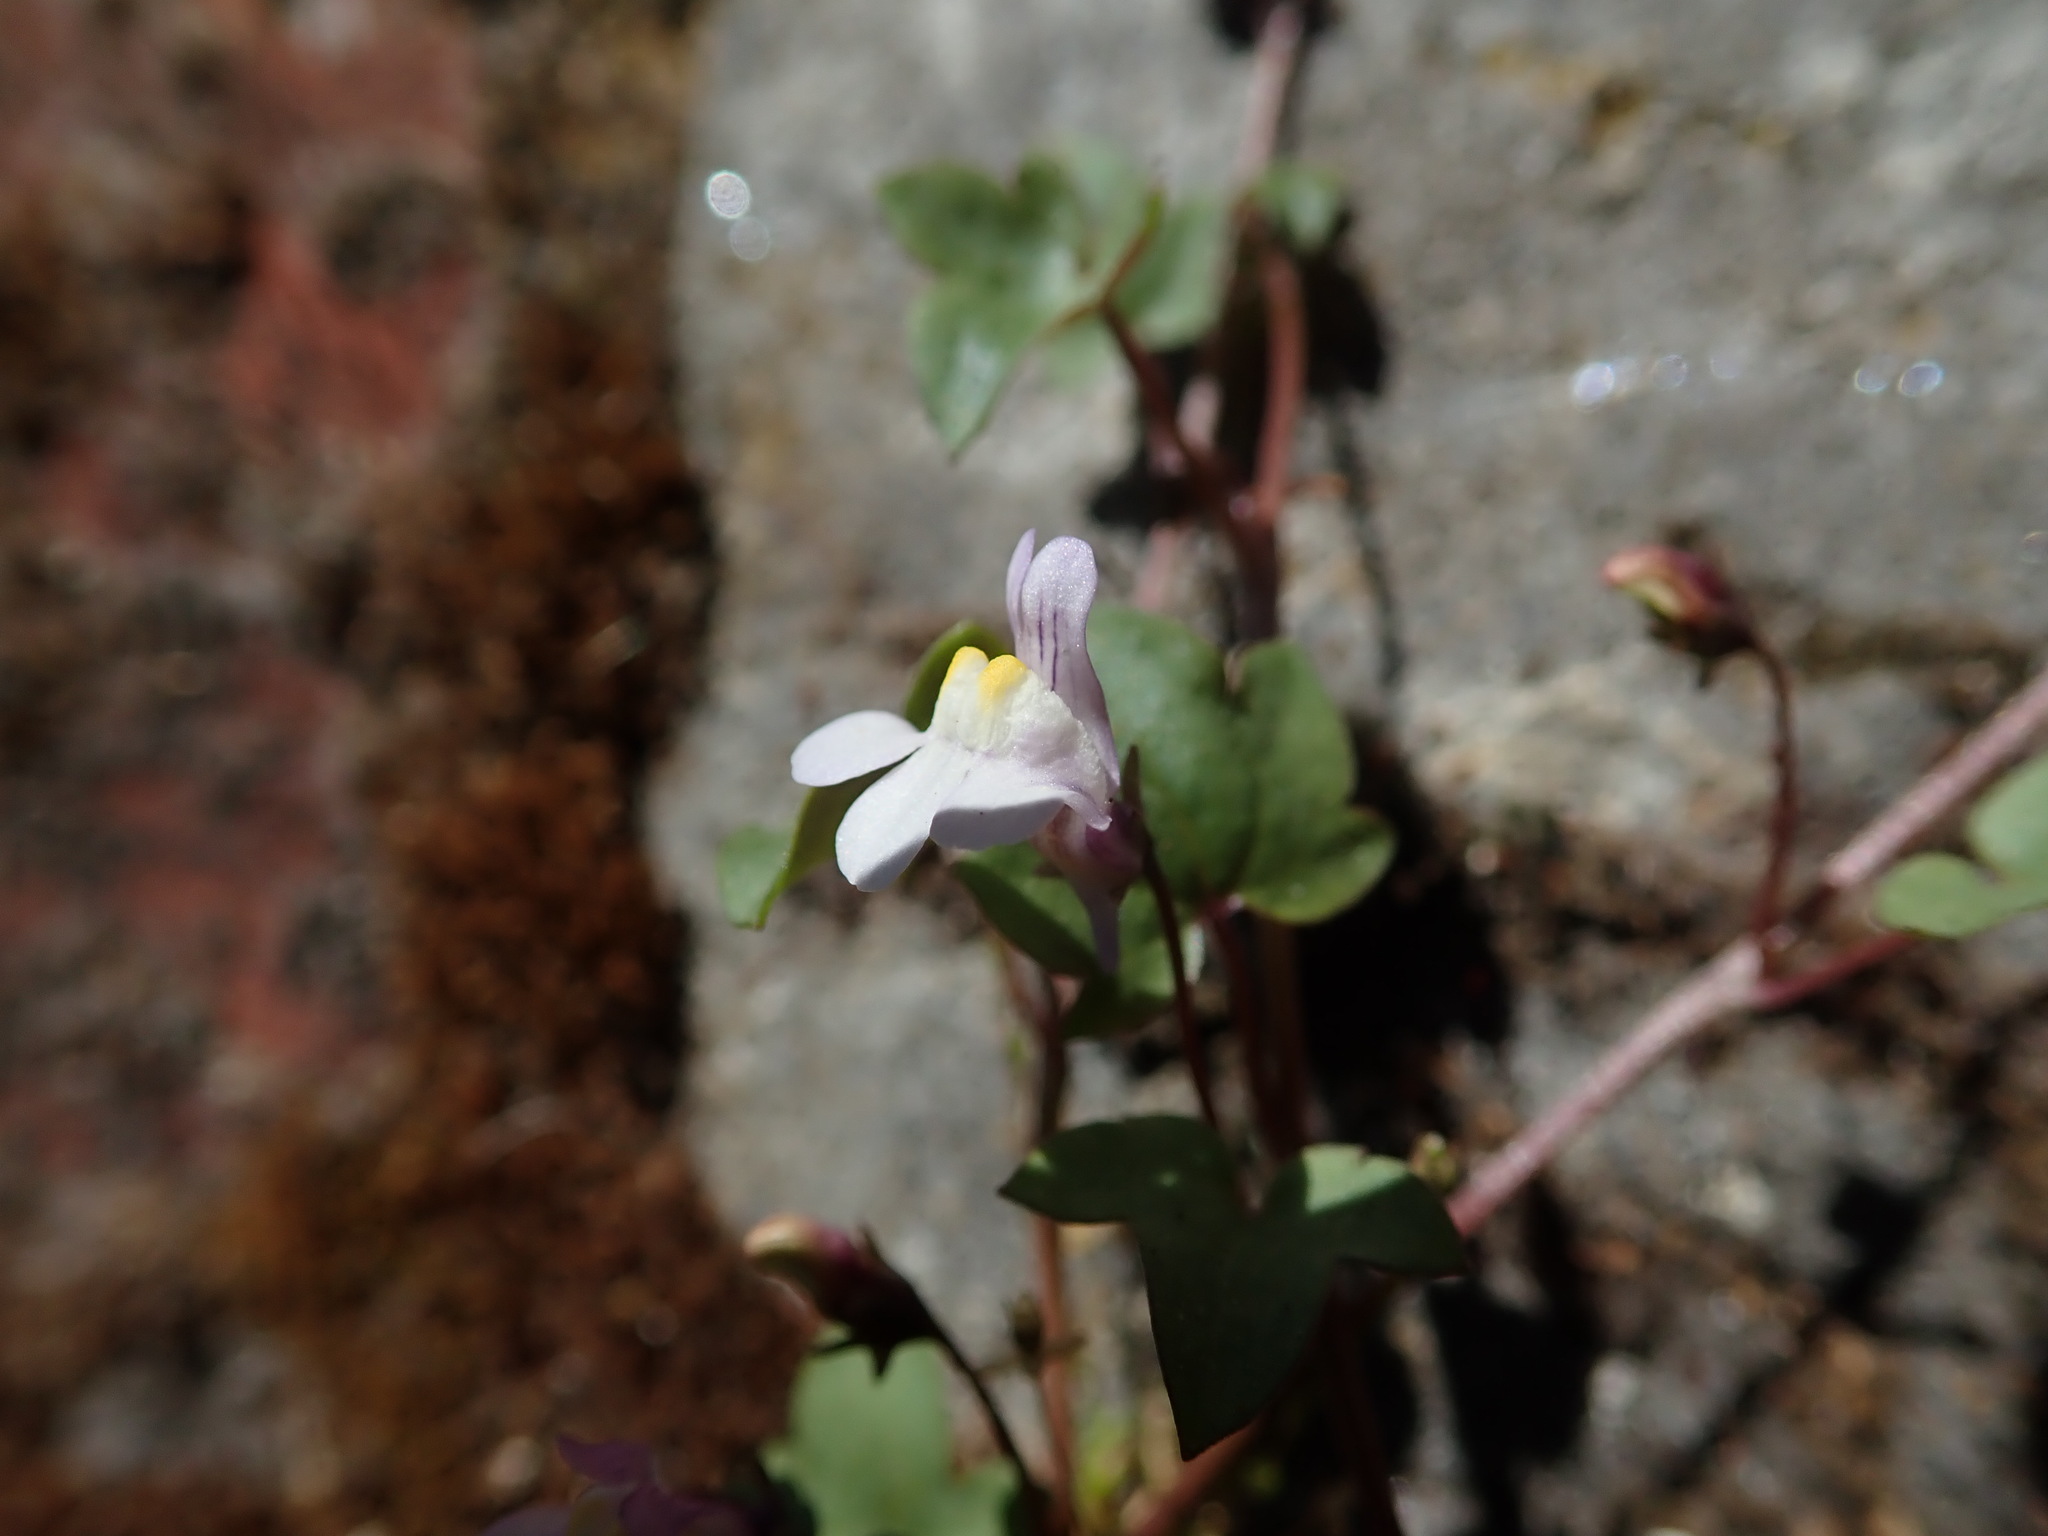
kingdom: Plantae
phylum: Tracheophyta
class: Magnoliopsida
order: Lamiales
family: Plantaginaceae
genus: Cymbalaria
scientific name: Cymbalaria muralis
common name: Ivy-leaved toadflax
